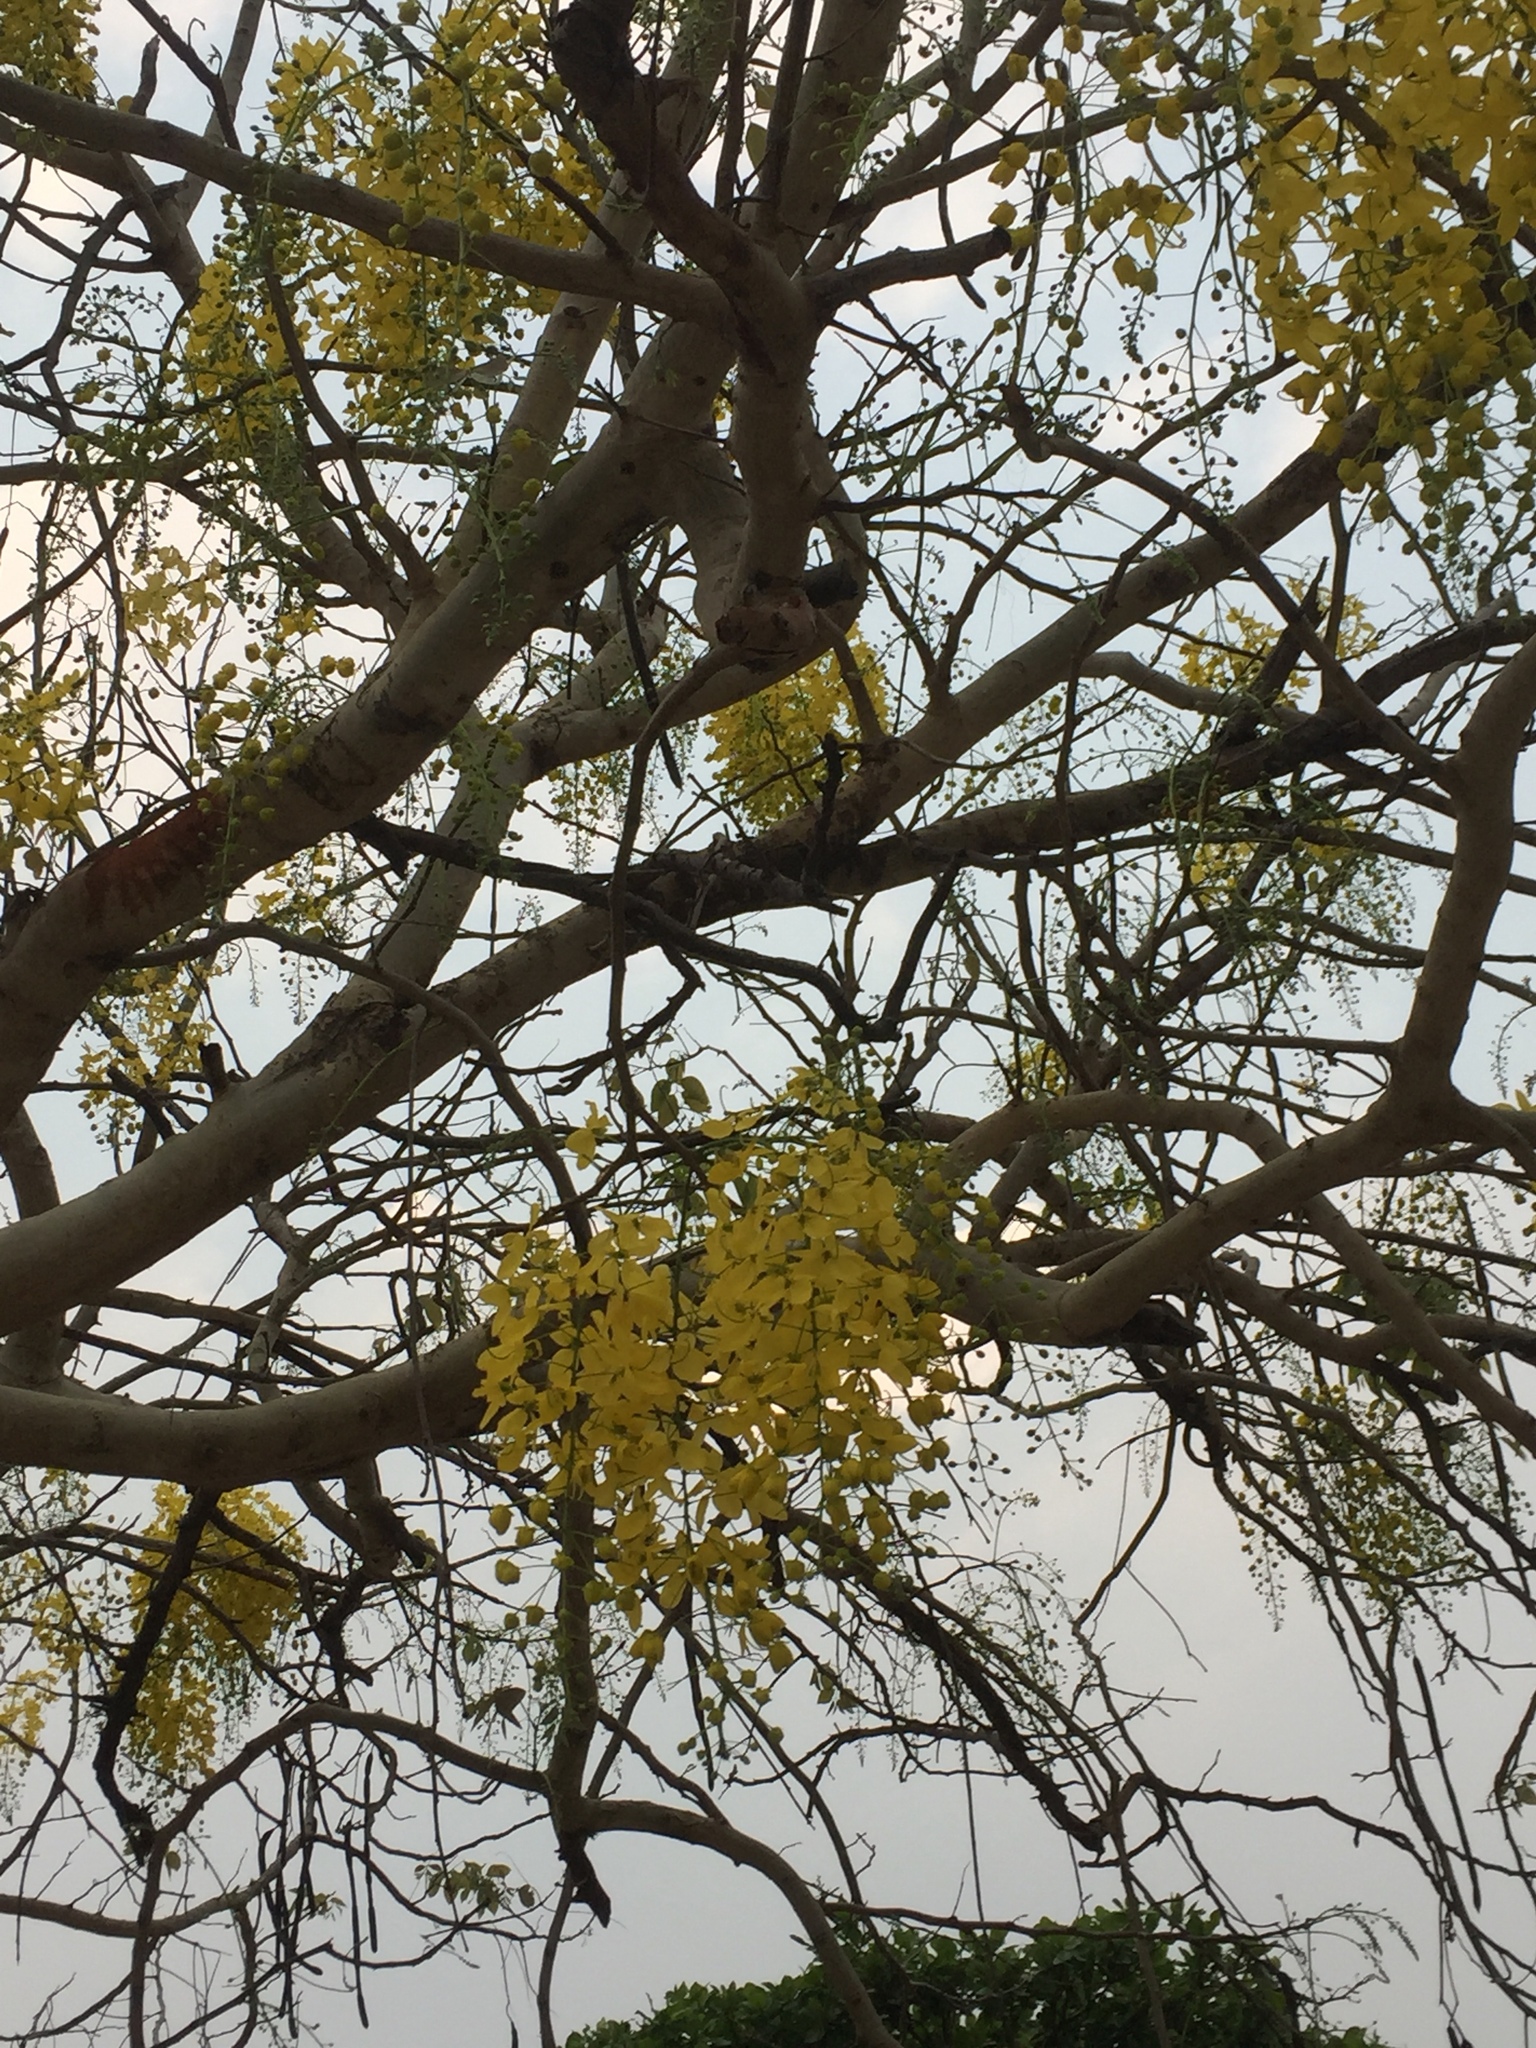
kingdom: Plantae
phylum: Tracheophyta
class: Magnoliopsida
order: Fabales
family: Fabaceae
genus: Cassia
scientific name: Cassia fistula
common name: Golden shower
